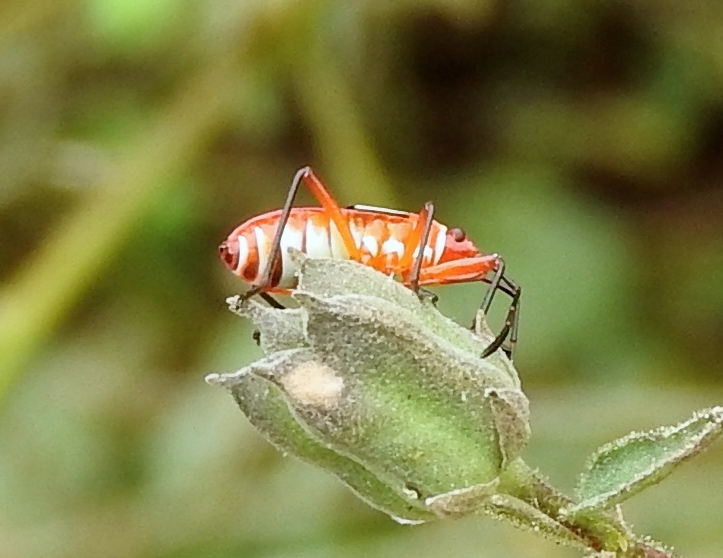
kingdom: Animalia
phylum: Arthropoda
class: Insecta
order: Hemiptera
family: Pyrrhocoridae
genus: Dysdercus
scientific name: Dysdercus
